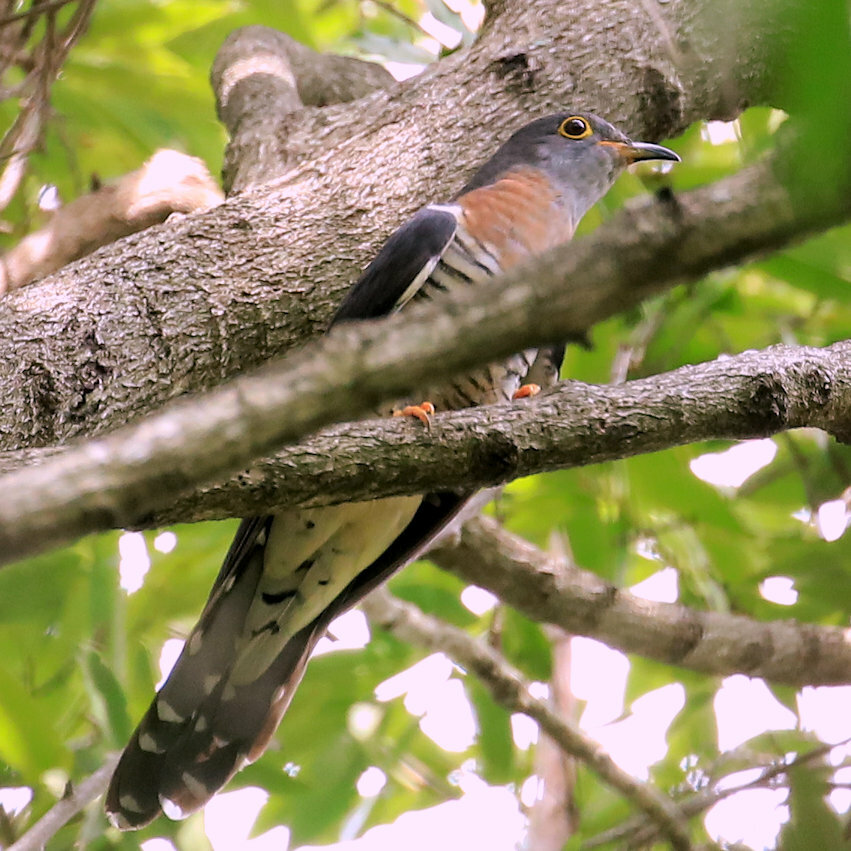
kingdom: Animalia
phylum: Chordata
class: Aves
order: Cuculiformes
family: Cuculidae
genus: Cuculus
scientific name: Cuculus solitarius
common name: Red-chested cuckoo
